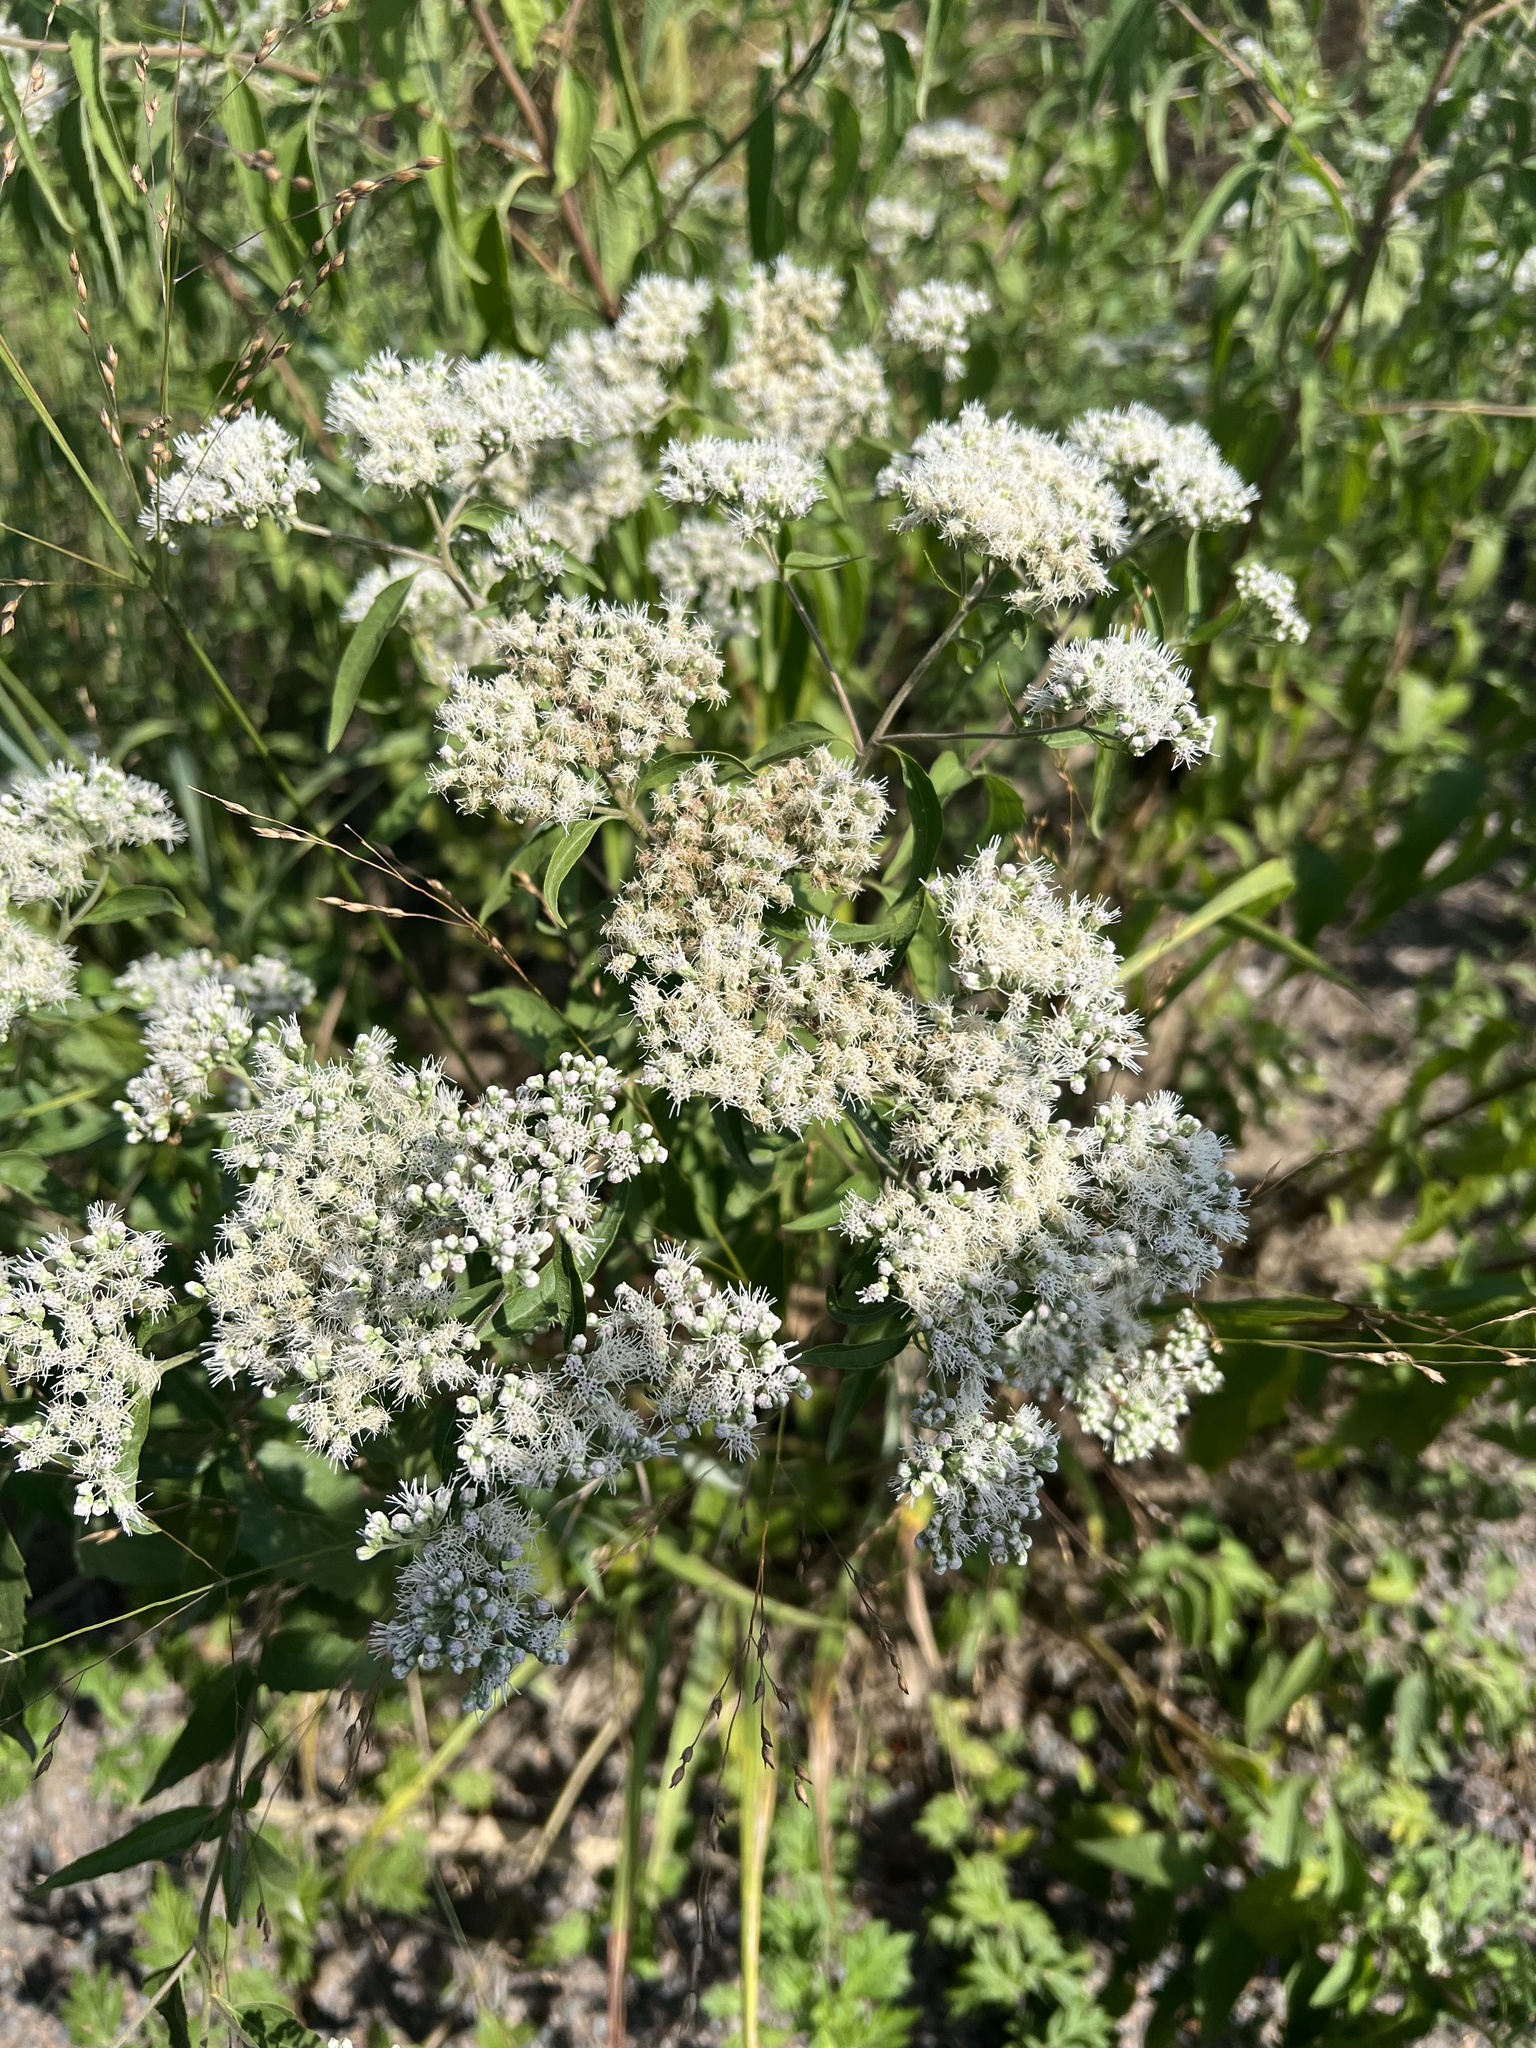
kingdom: Plantae
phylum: Tracheophyta
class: Magnoliopsida
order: Asterales
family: Asteraceae
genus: Eupatorium
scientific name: Eupatorium serotinum
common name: Late boneset
